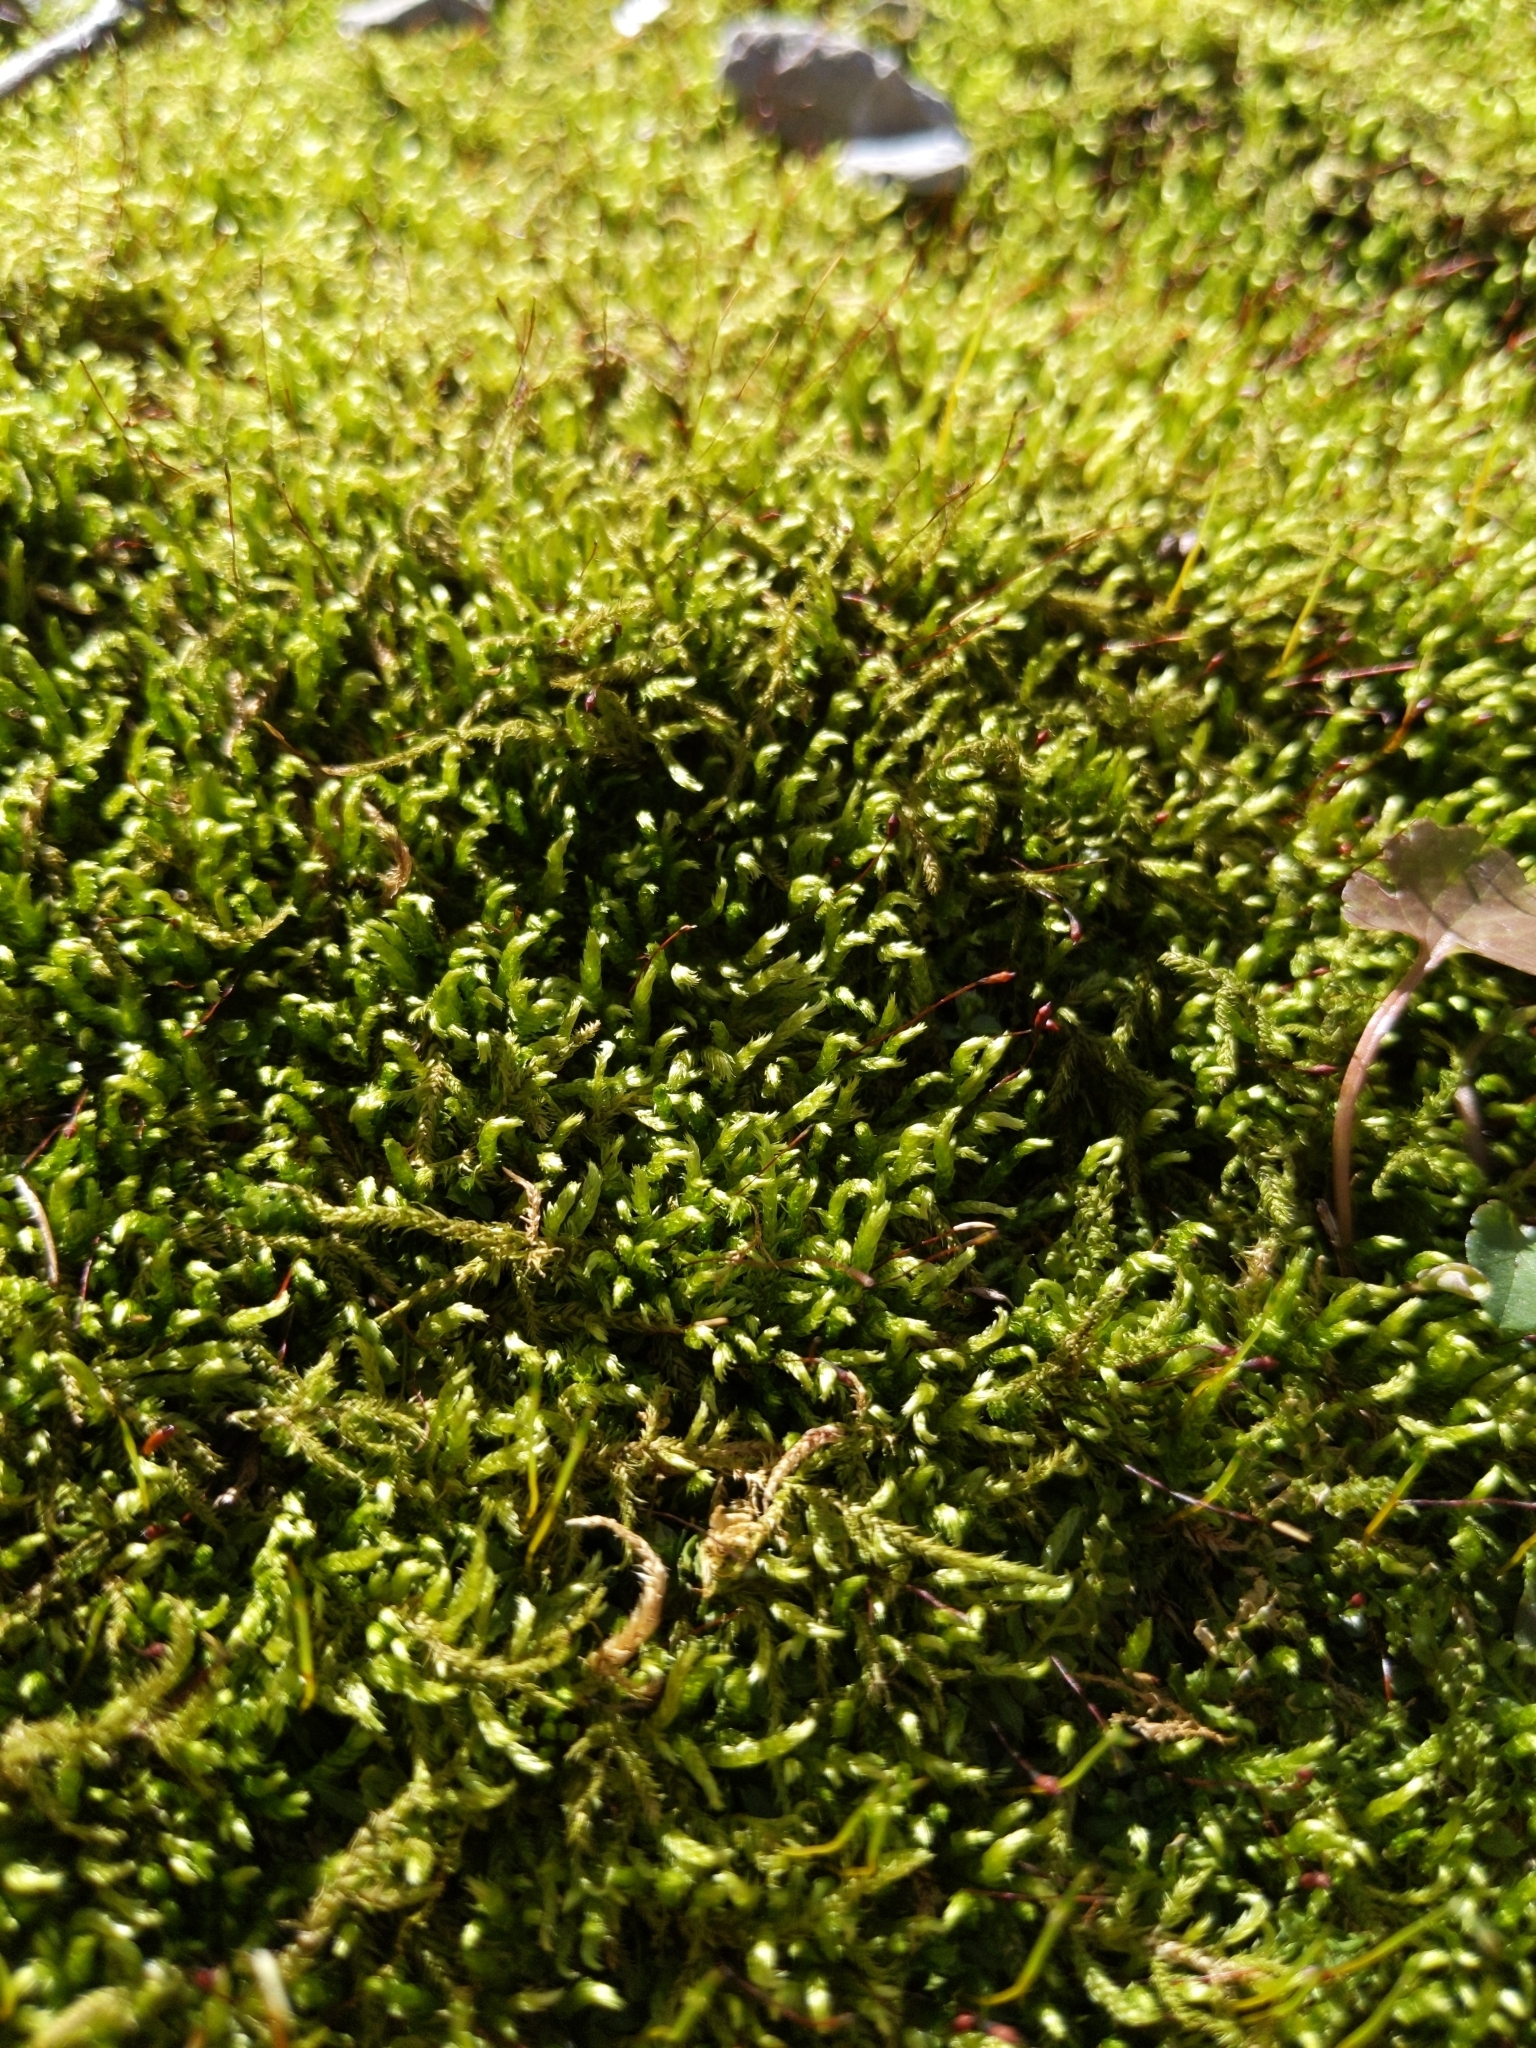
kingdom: Plantae
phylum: Bryophyta
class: Bryopsida
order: Hedwigiales
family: Hedwigiaceae
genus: Hedwigia
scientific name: Hedwigia ciliata
